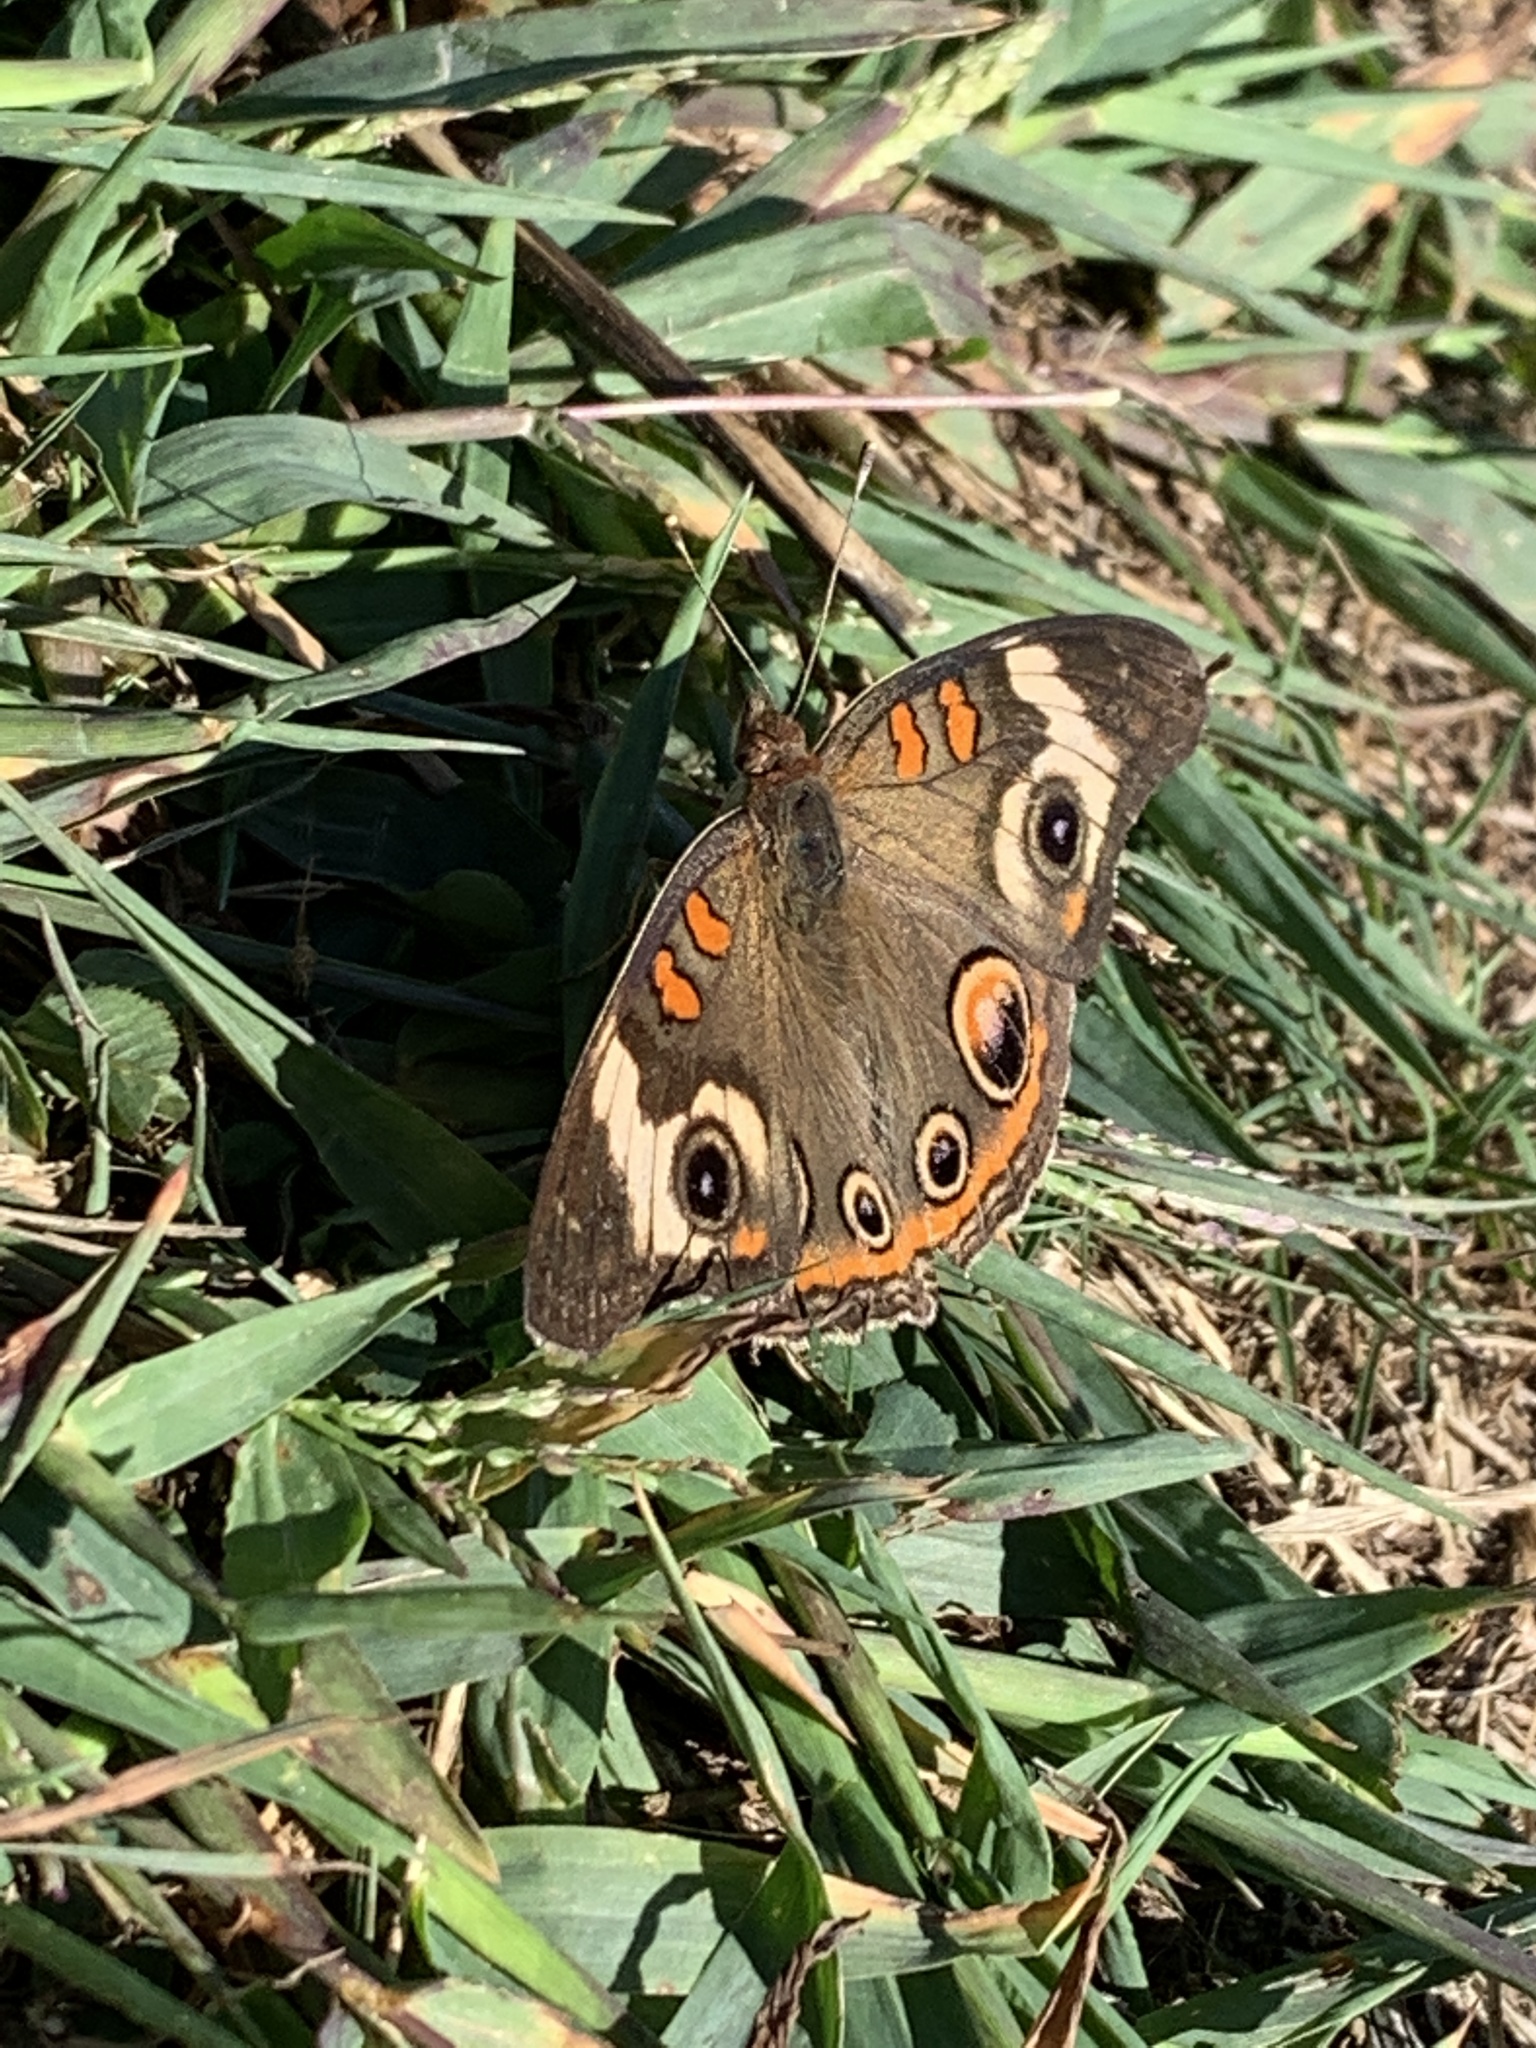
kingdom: Animalia
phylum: Arthropoda
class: Insecta
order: Lepidoptera
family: Nymphalidae
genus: Junonia
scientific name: Junonia coenia
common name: Common buckeye
